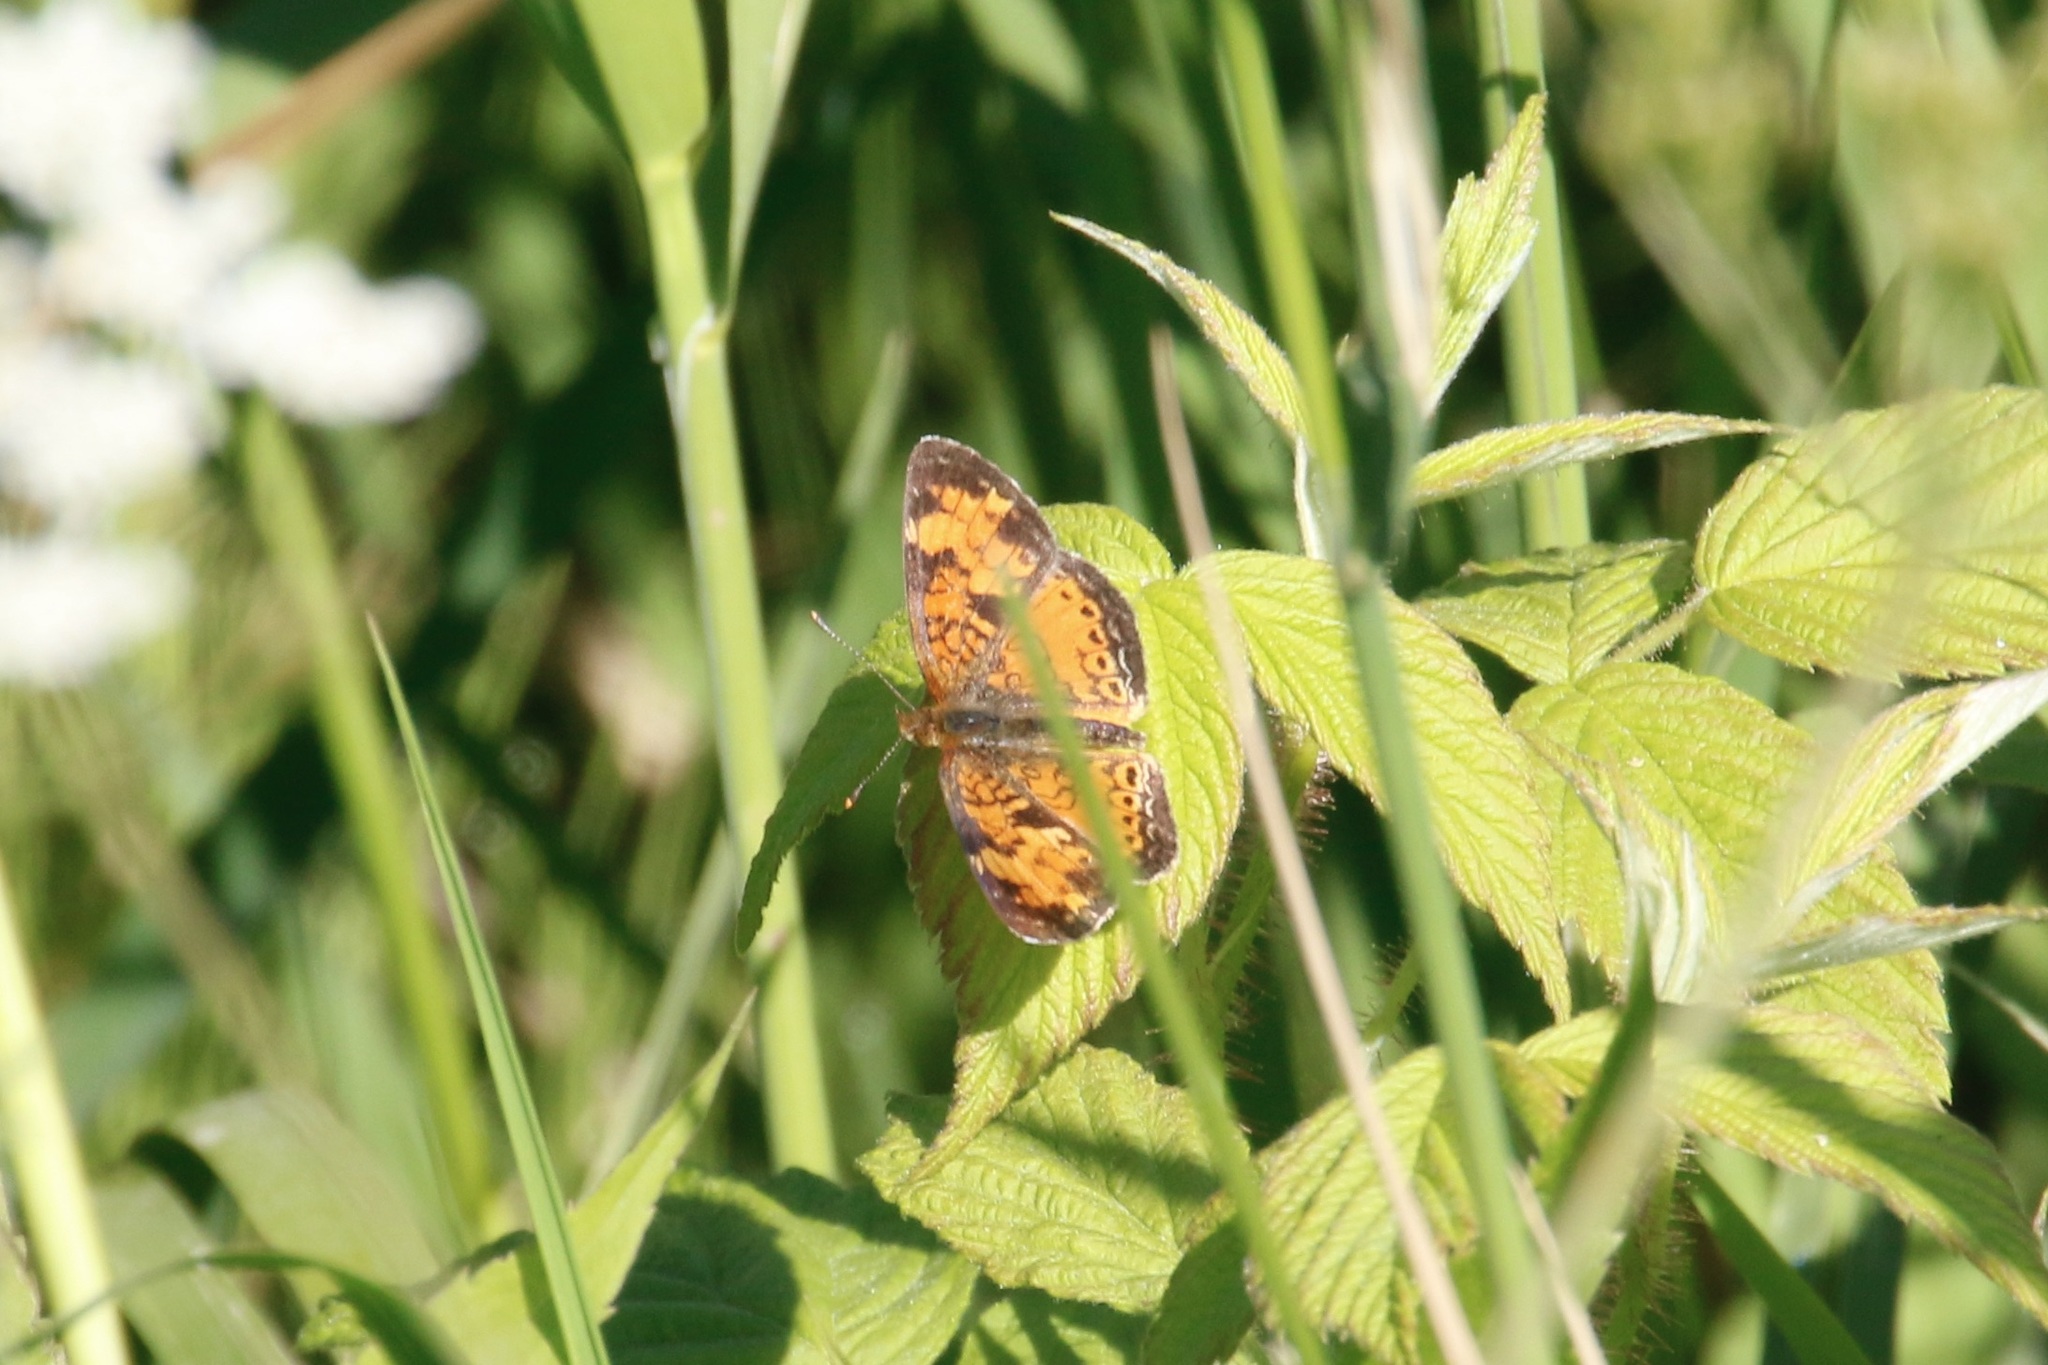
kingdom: Animalia
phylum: Arthropoda
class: Insecta
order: Lepidoptera
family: Nymphalidae
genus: Phyciodes
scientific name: Phyciodes tharos
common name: Pearl crescent
